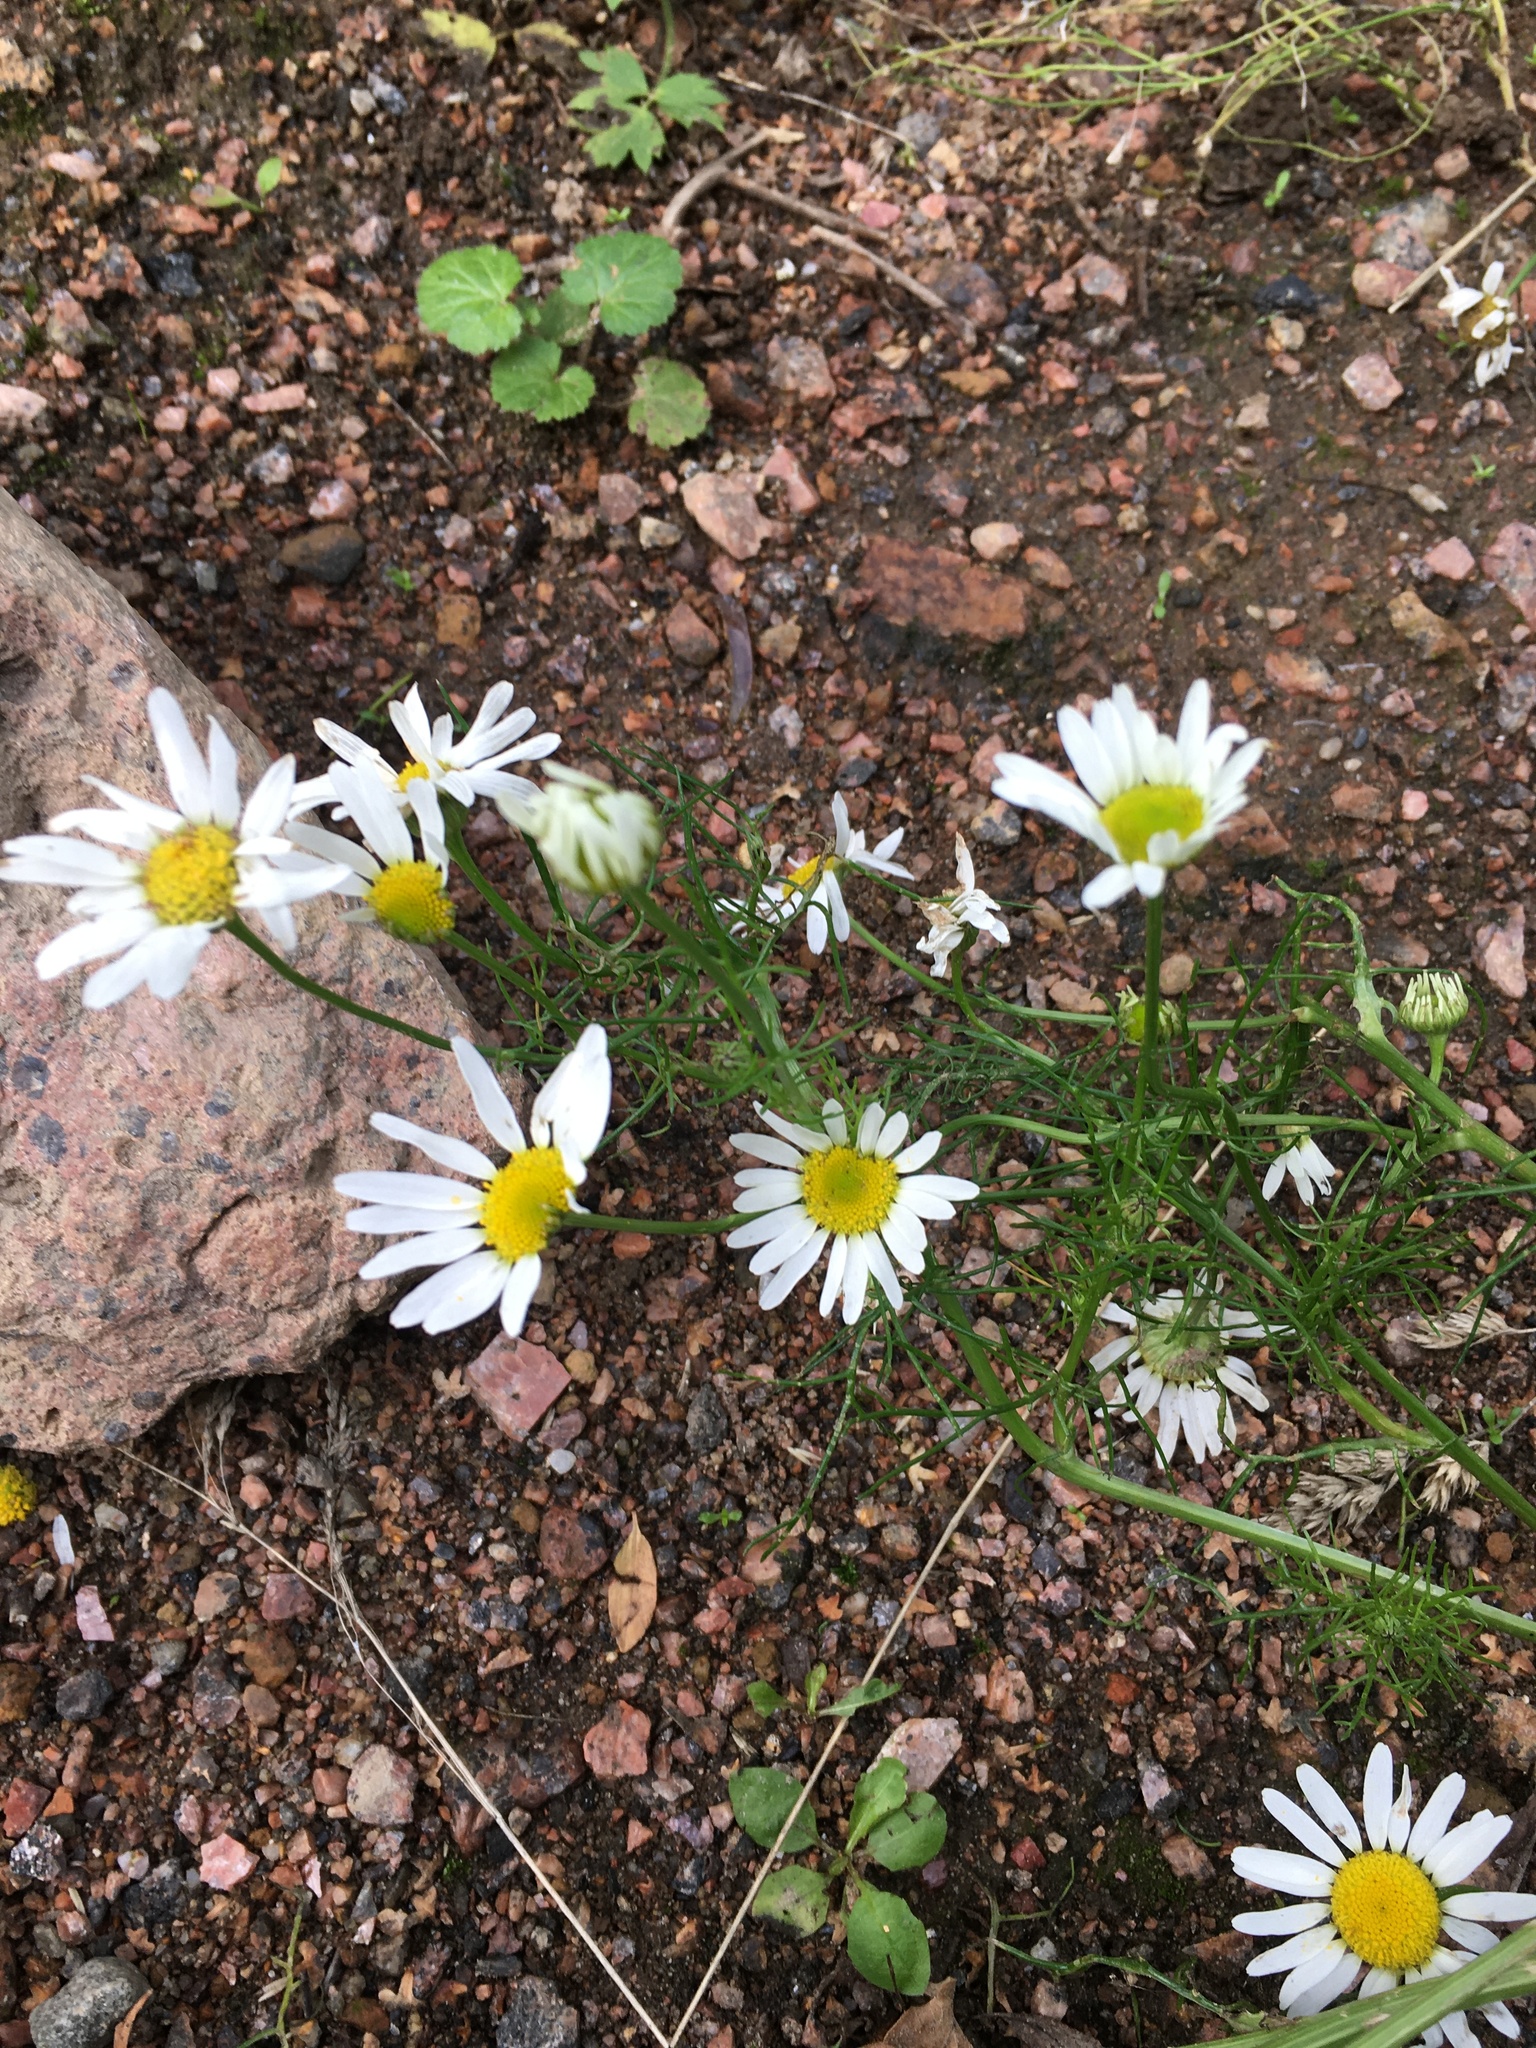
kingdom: Plantae
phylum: Tracheophyta
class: Magnoliopsida
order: Asterales
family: Asteraceae
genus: Tripleurospermum
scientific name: Tripleurospermum inodorum
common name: Scentless mayweed
